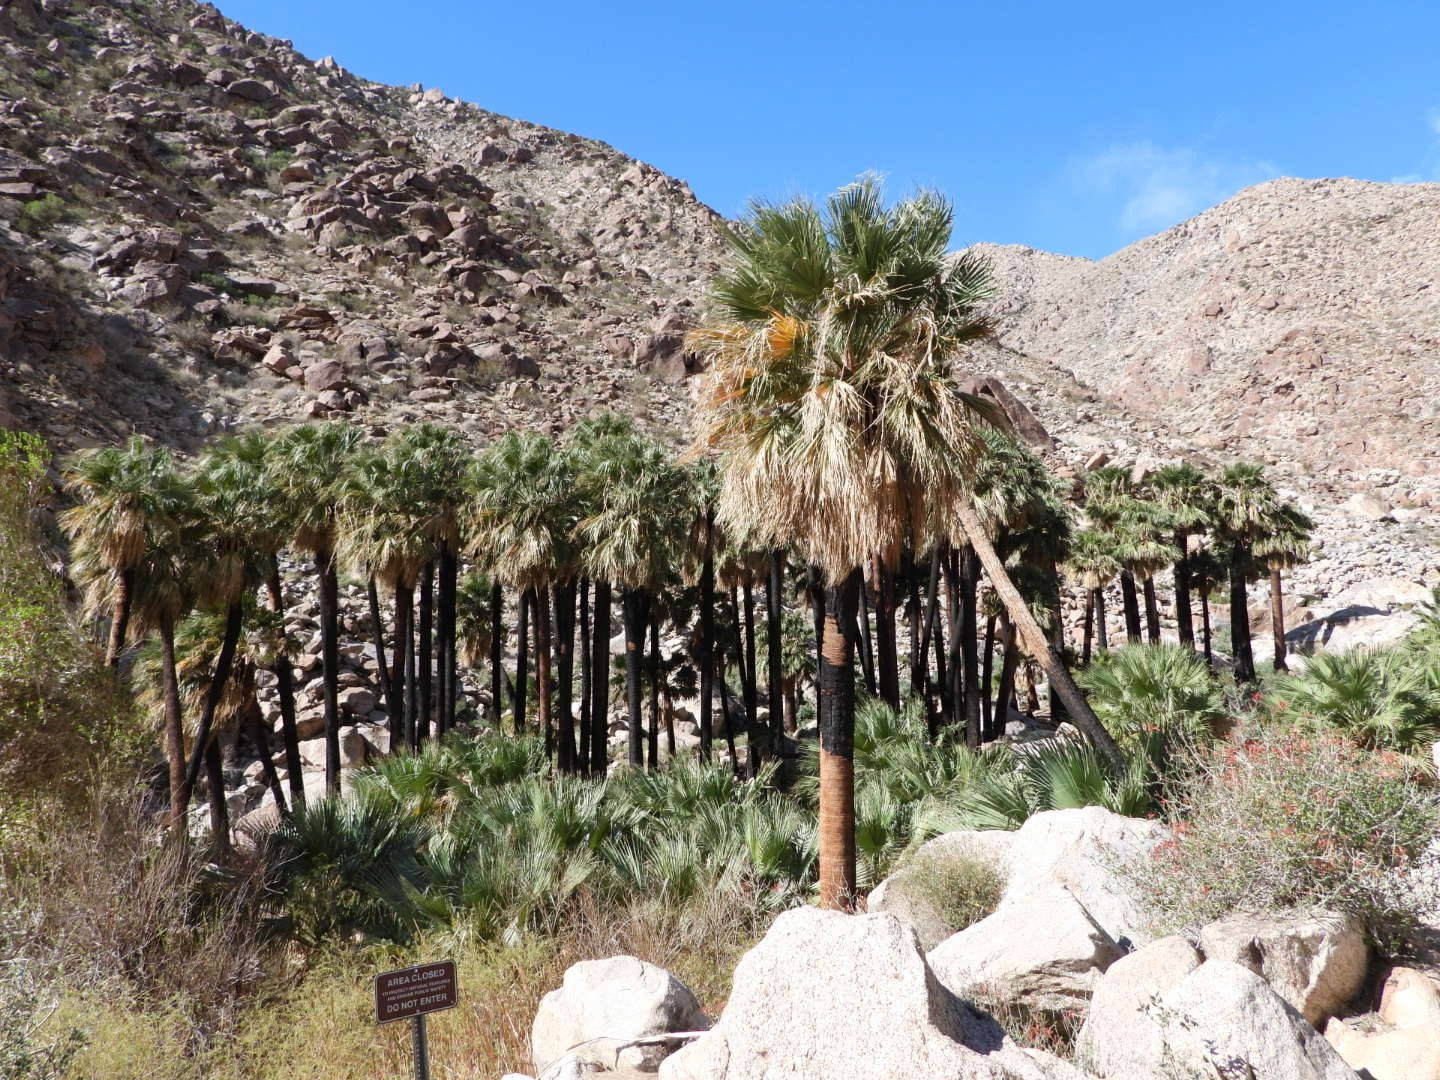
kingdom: Plantae
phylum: Tracheophyta
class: Liliopsida
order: Arecales
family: Arecaceae
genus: Washingtonia
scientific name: Washingtonia filifera
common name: California fan palm
